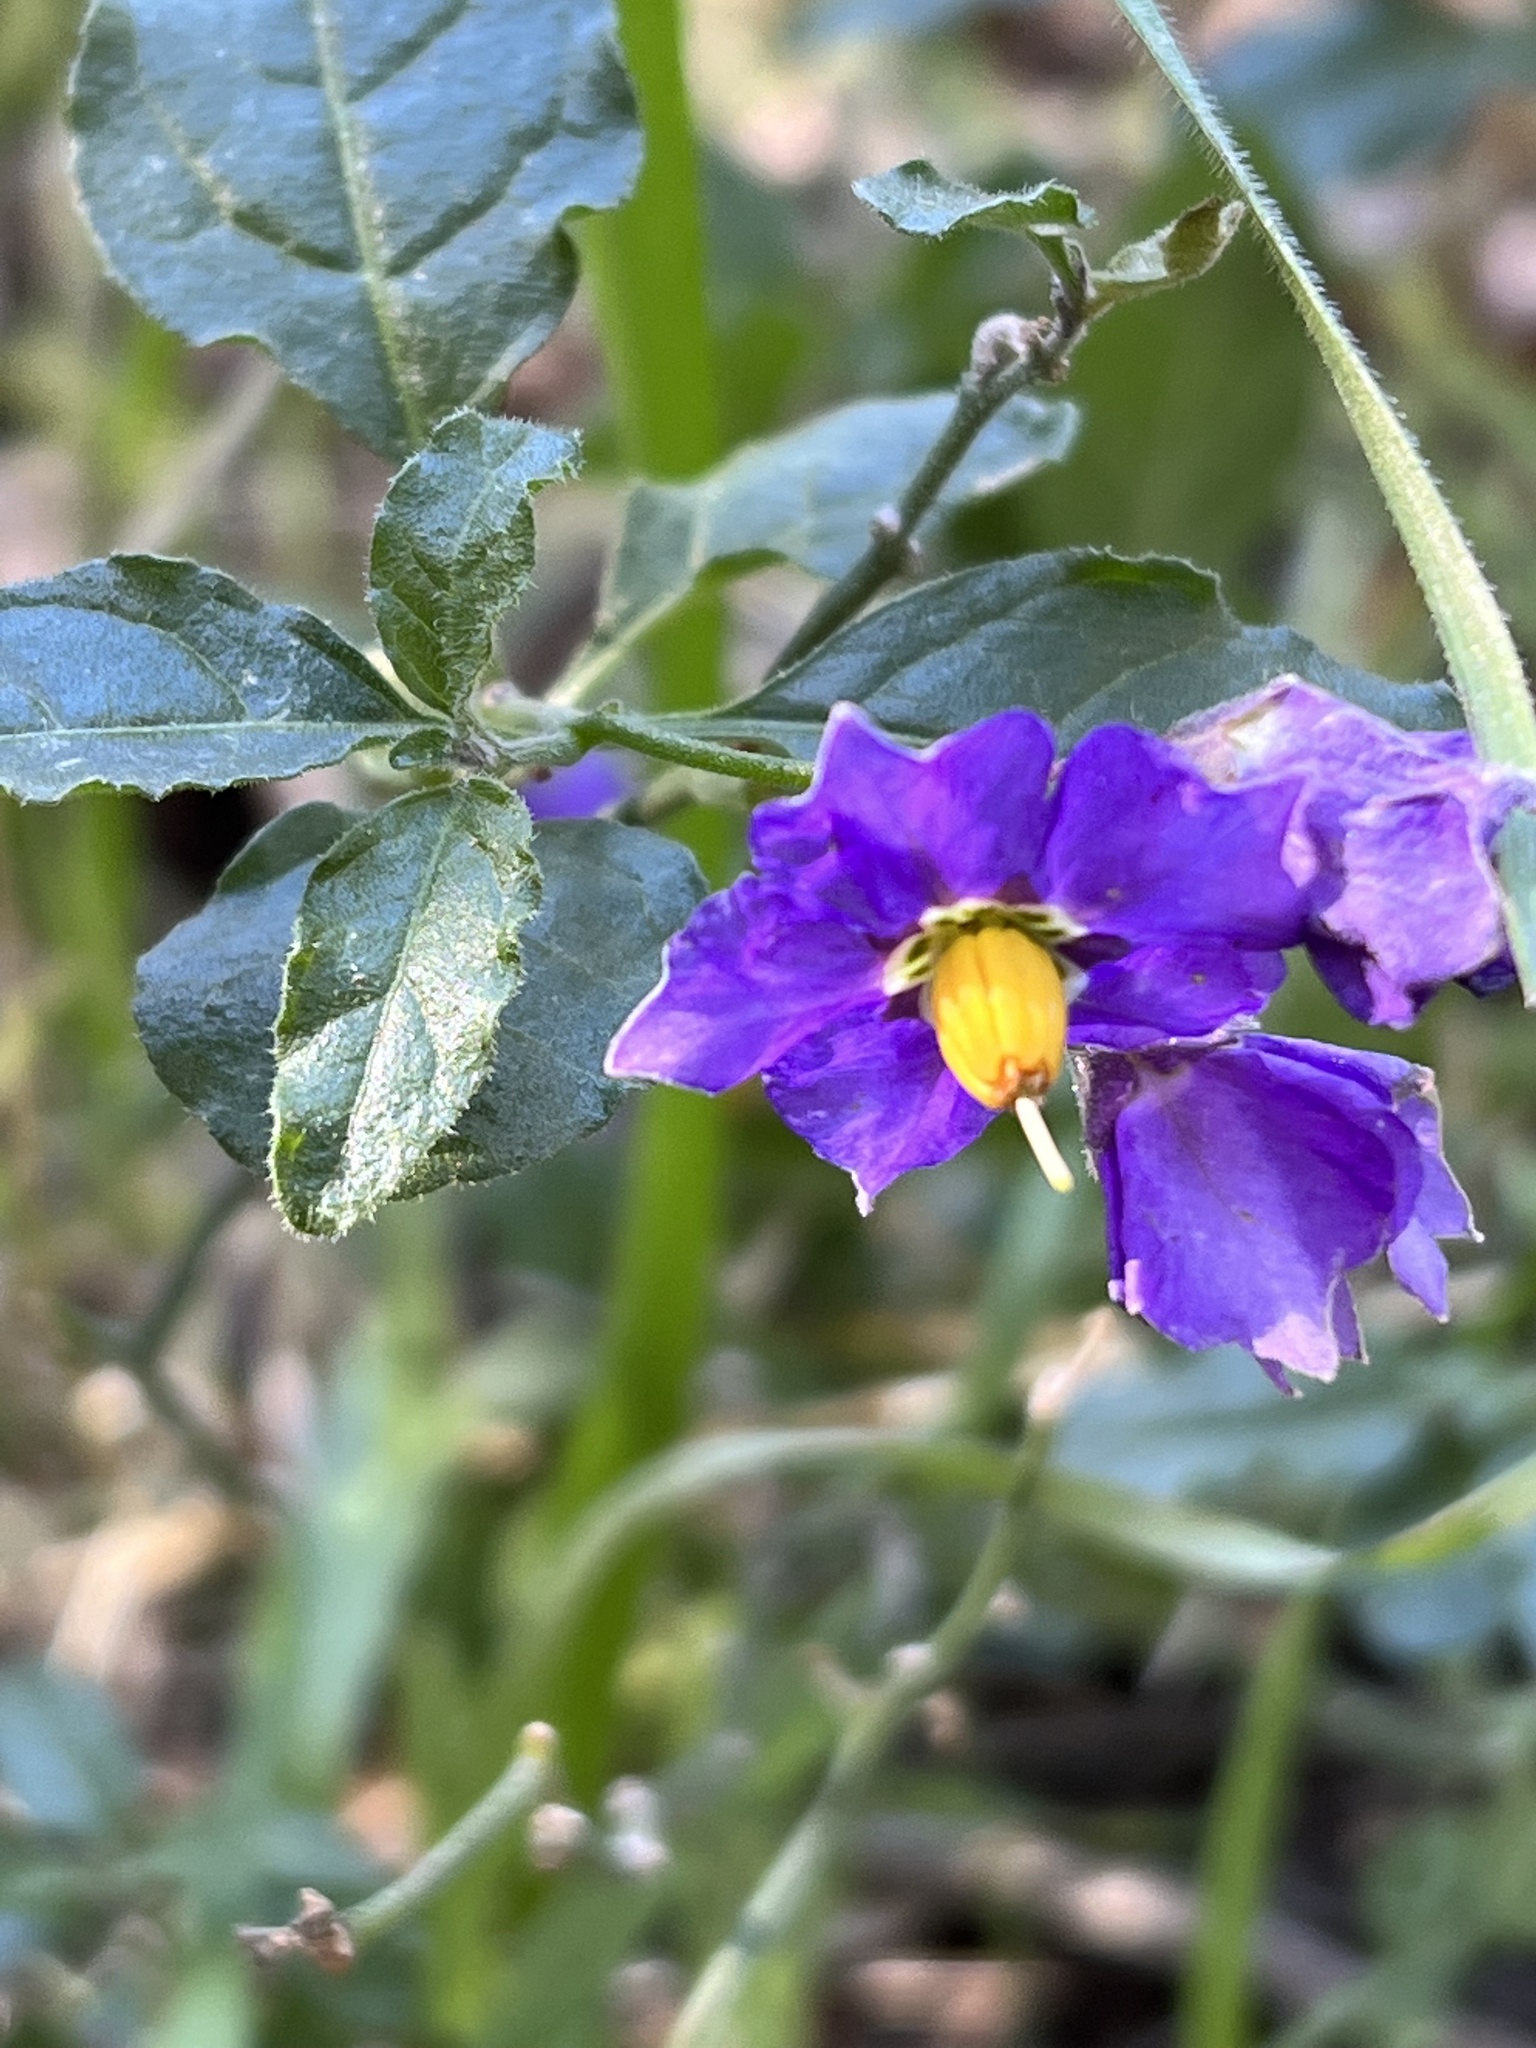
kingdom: Plantae
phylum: Tracheophyta
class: Magnoliopsida
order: Solanales
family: Solanaceae
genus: Solanum
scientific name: Solanum umbelliferum
